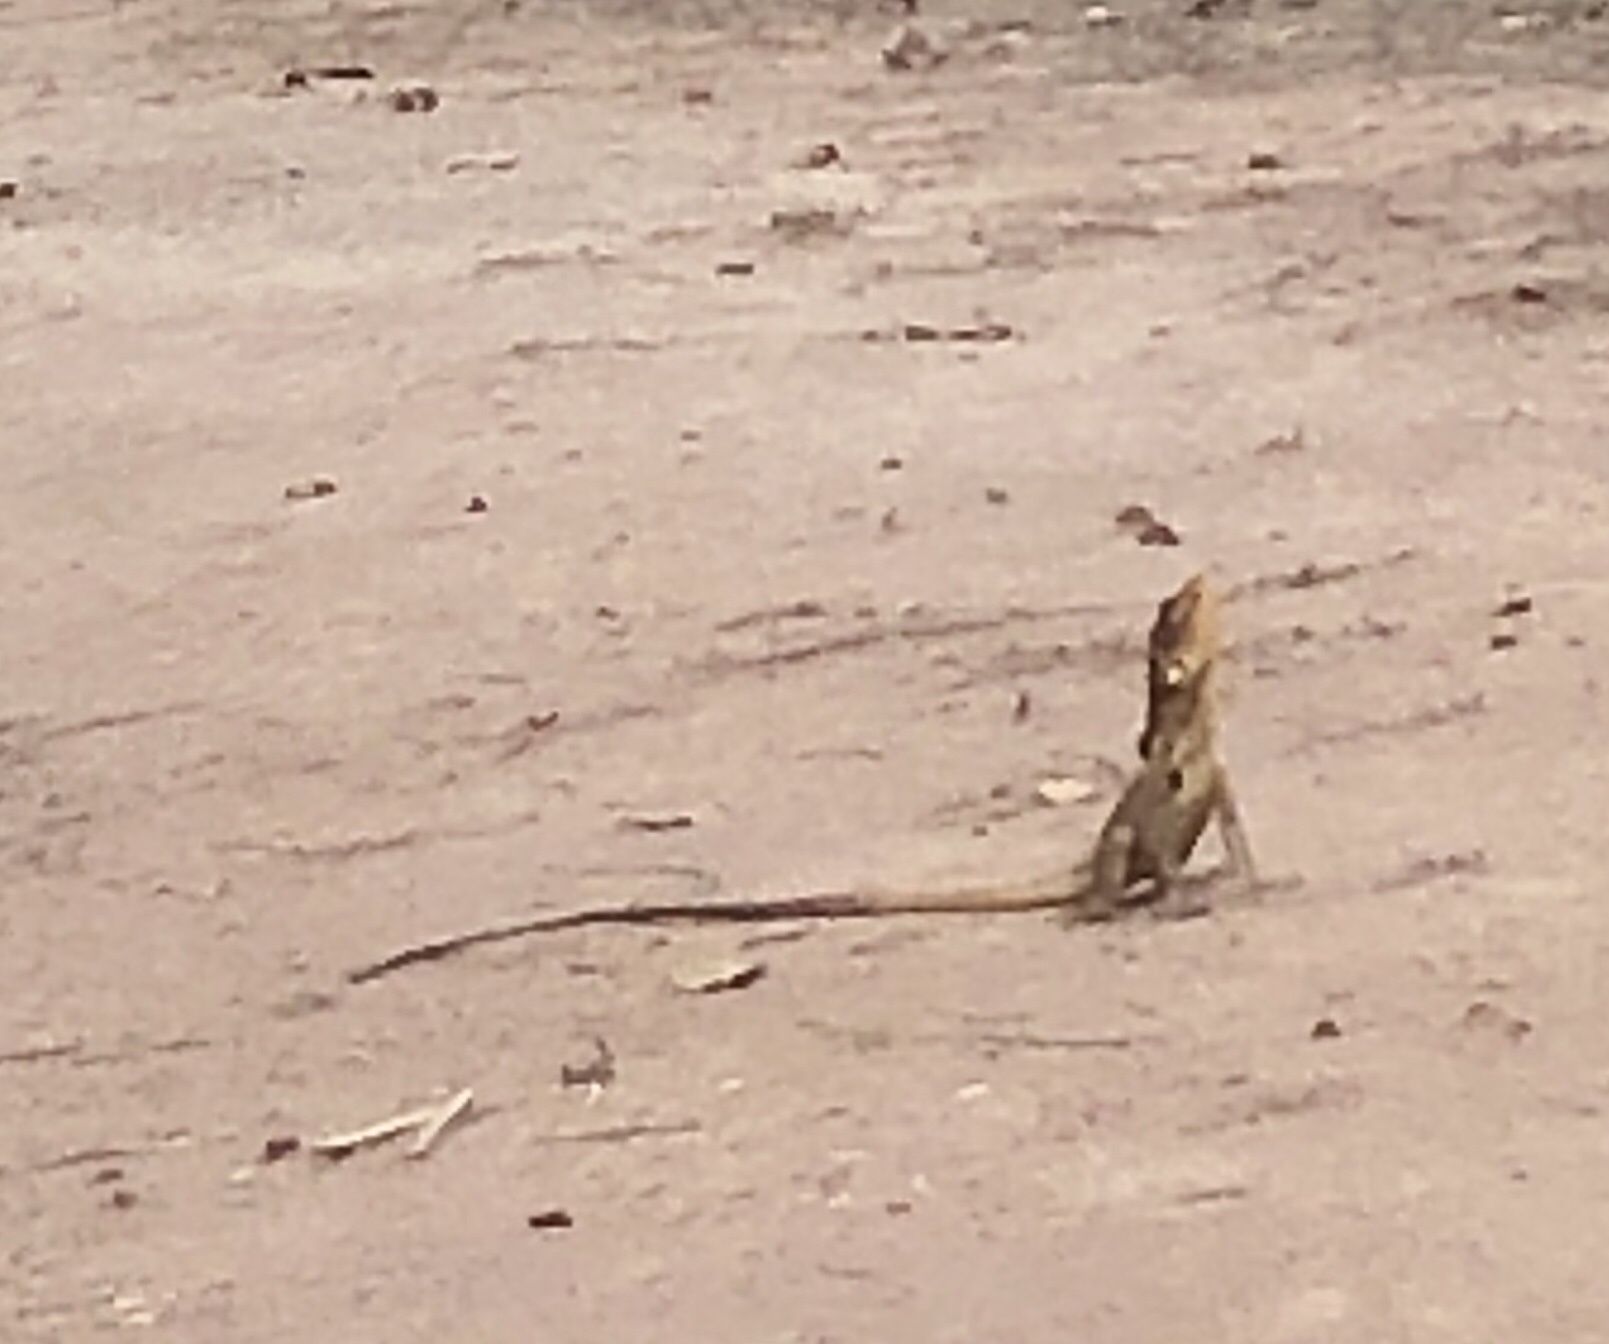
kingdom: Animalia
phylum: Chordata
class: Squamata
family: Agamidae
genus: Chlamydosaurus
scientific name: Chlamydosaurus kingii
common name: Frilled lizard
